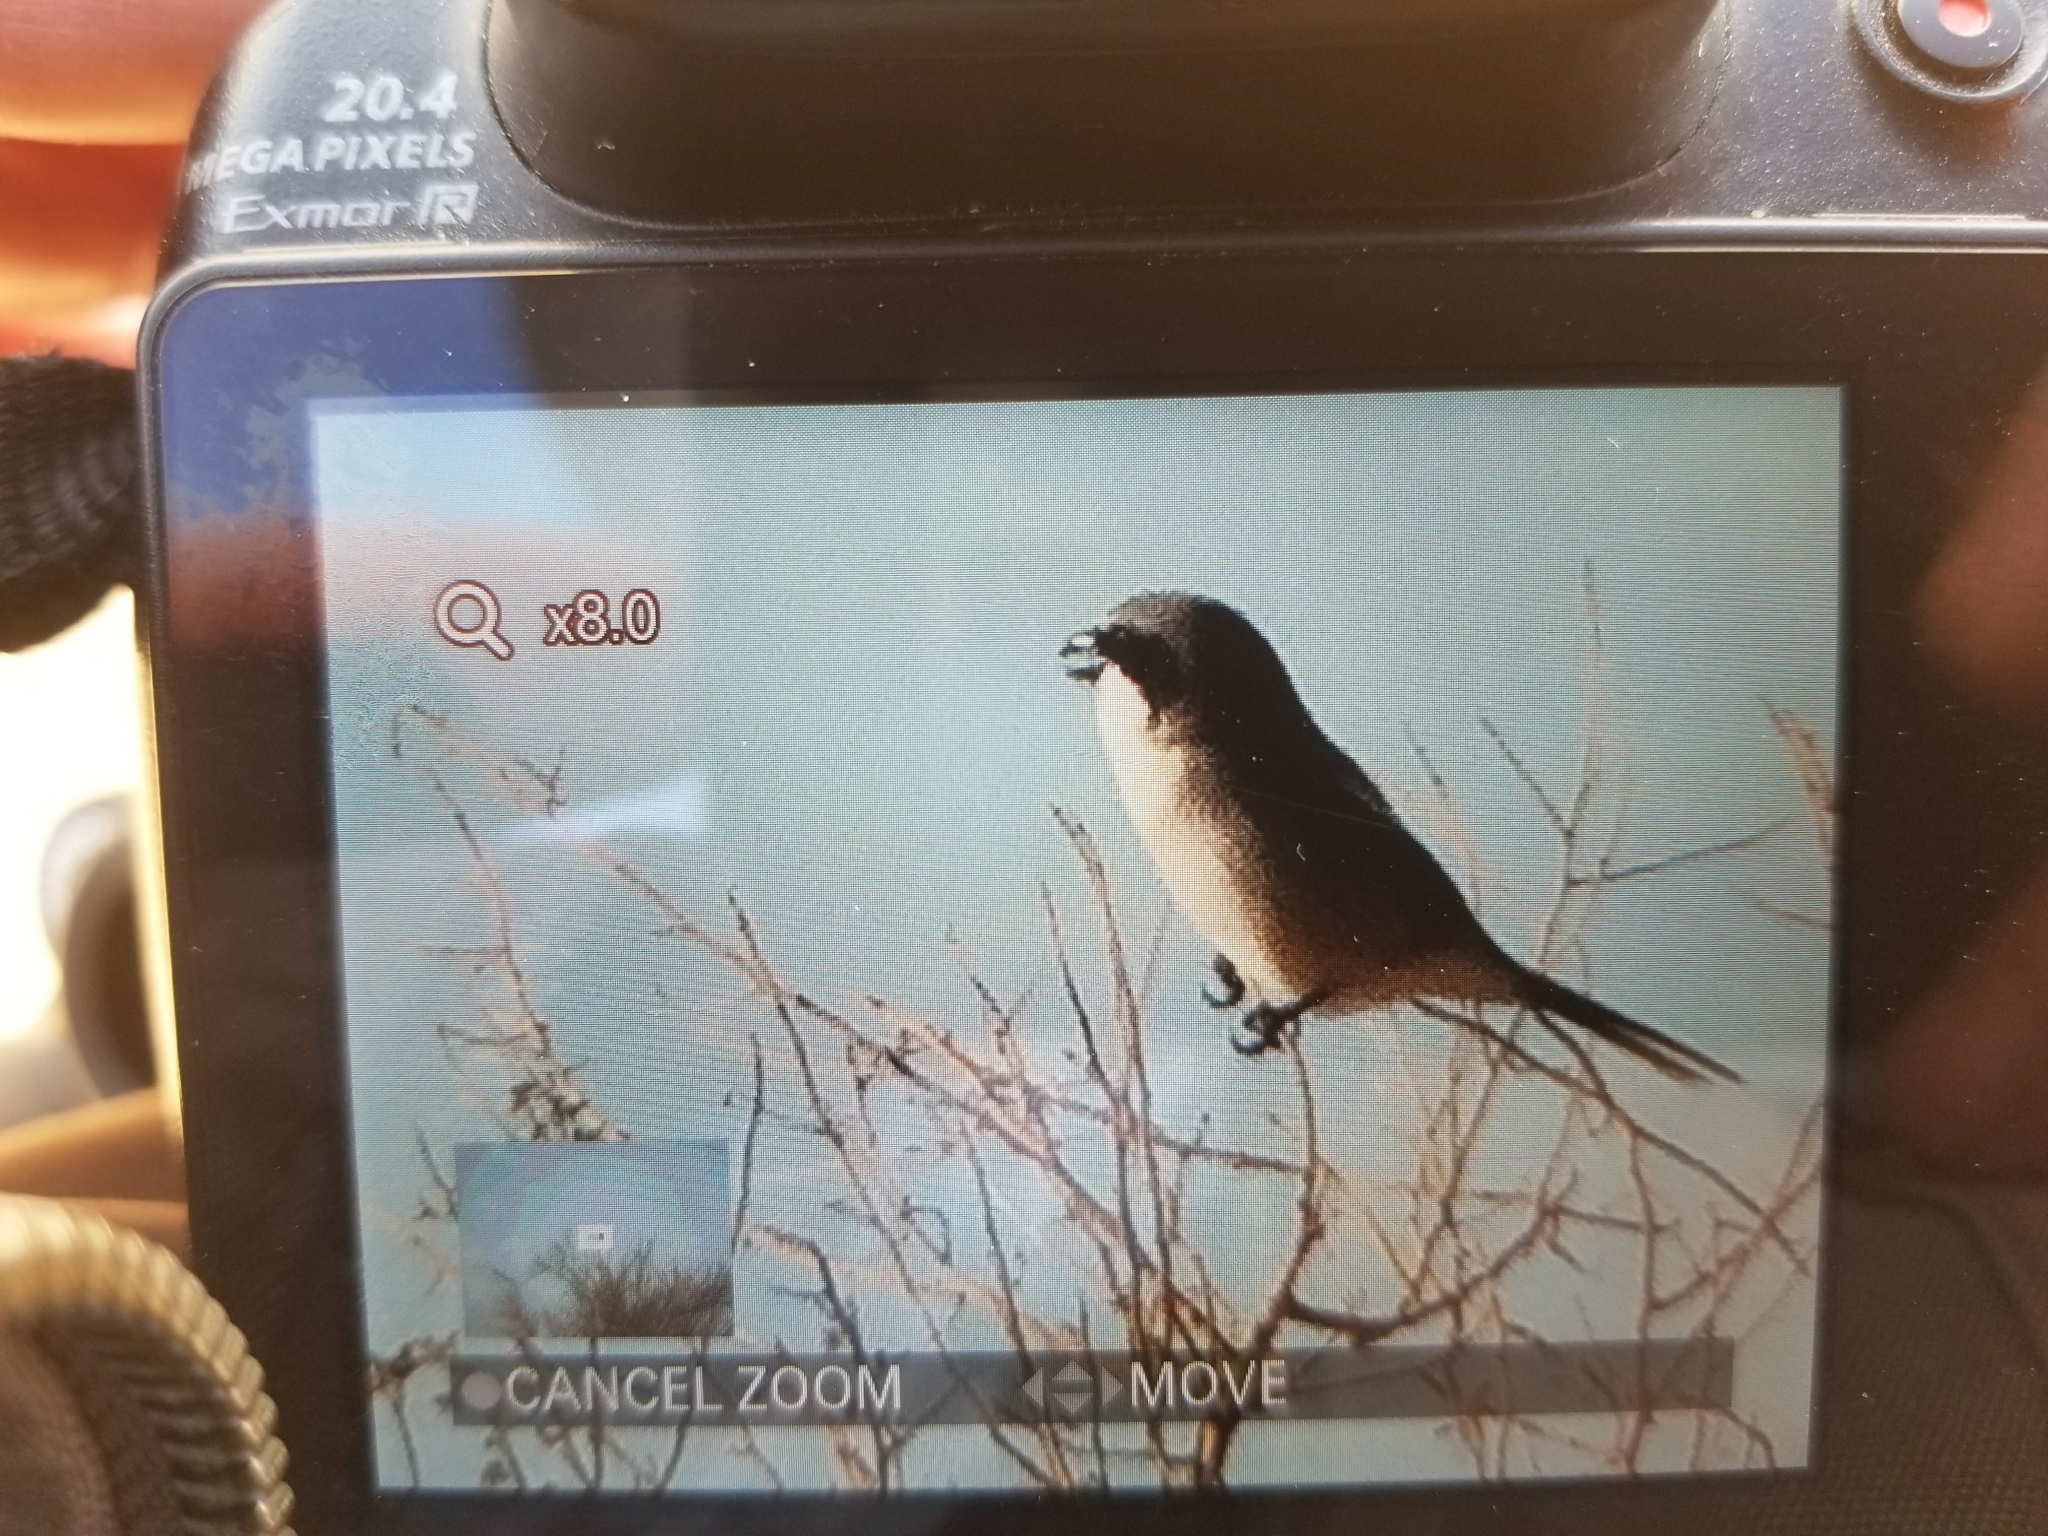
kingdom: Animalia
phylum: Chordata
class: Aves
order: Passeriformes
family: Laniidae
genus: Lanius
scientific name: Lanius ludovicianus
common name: Loggerhead shrike
